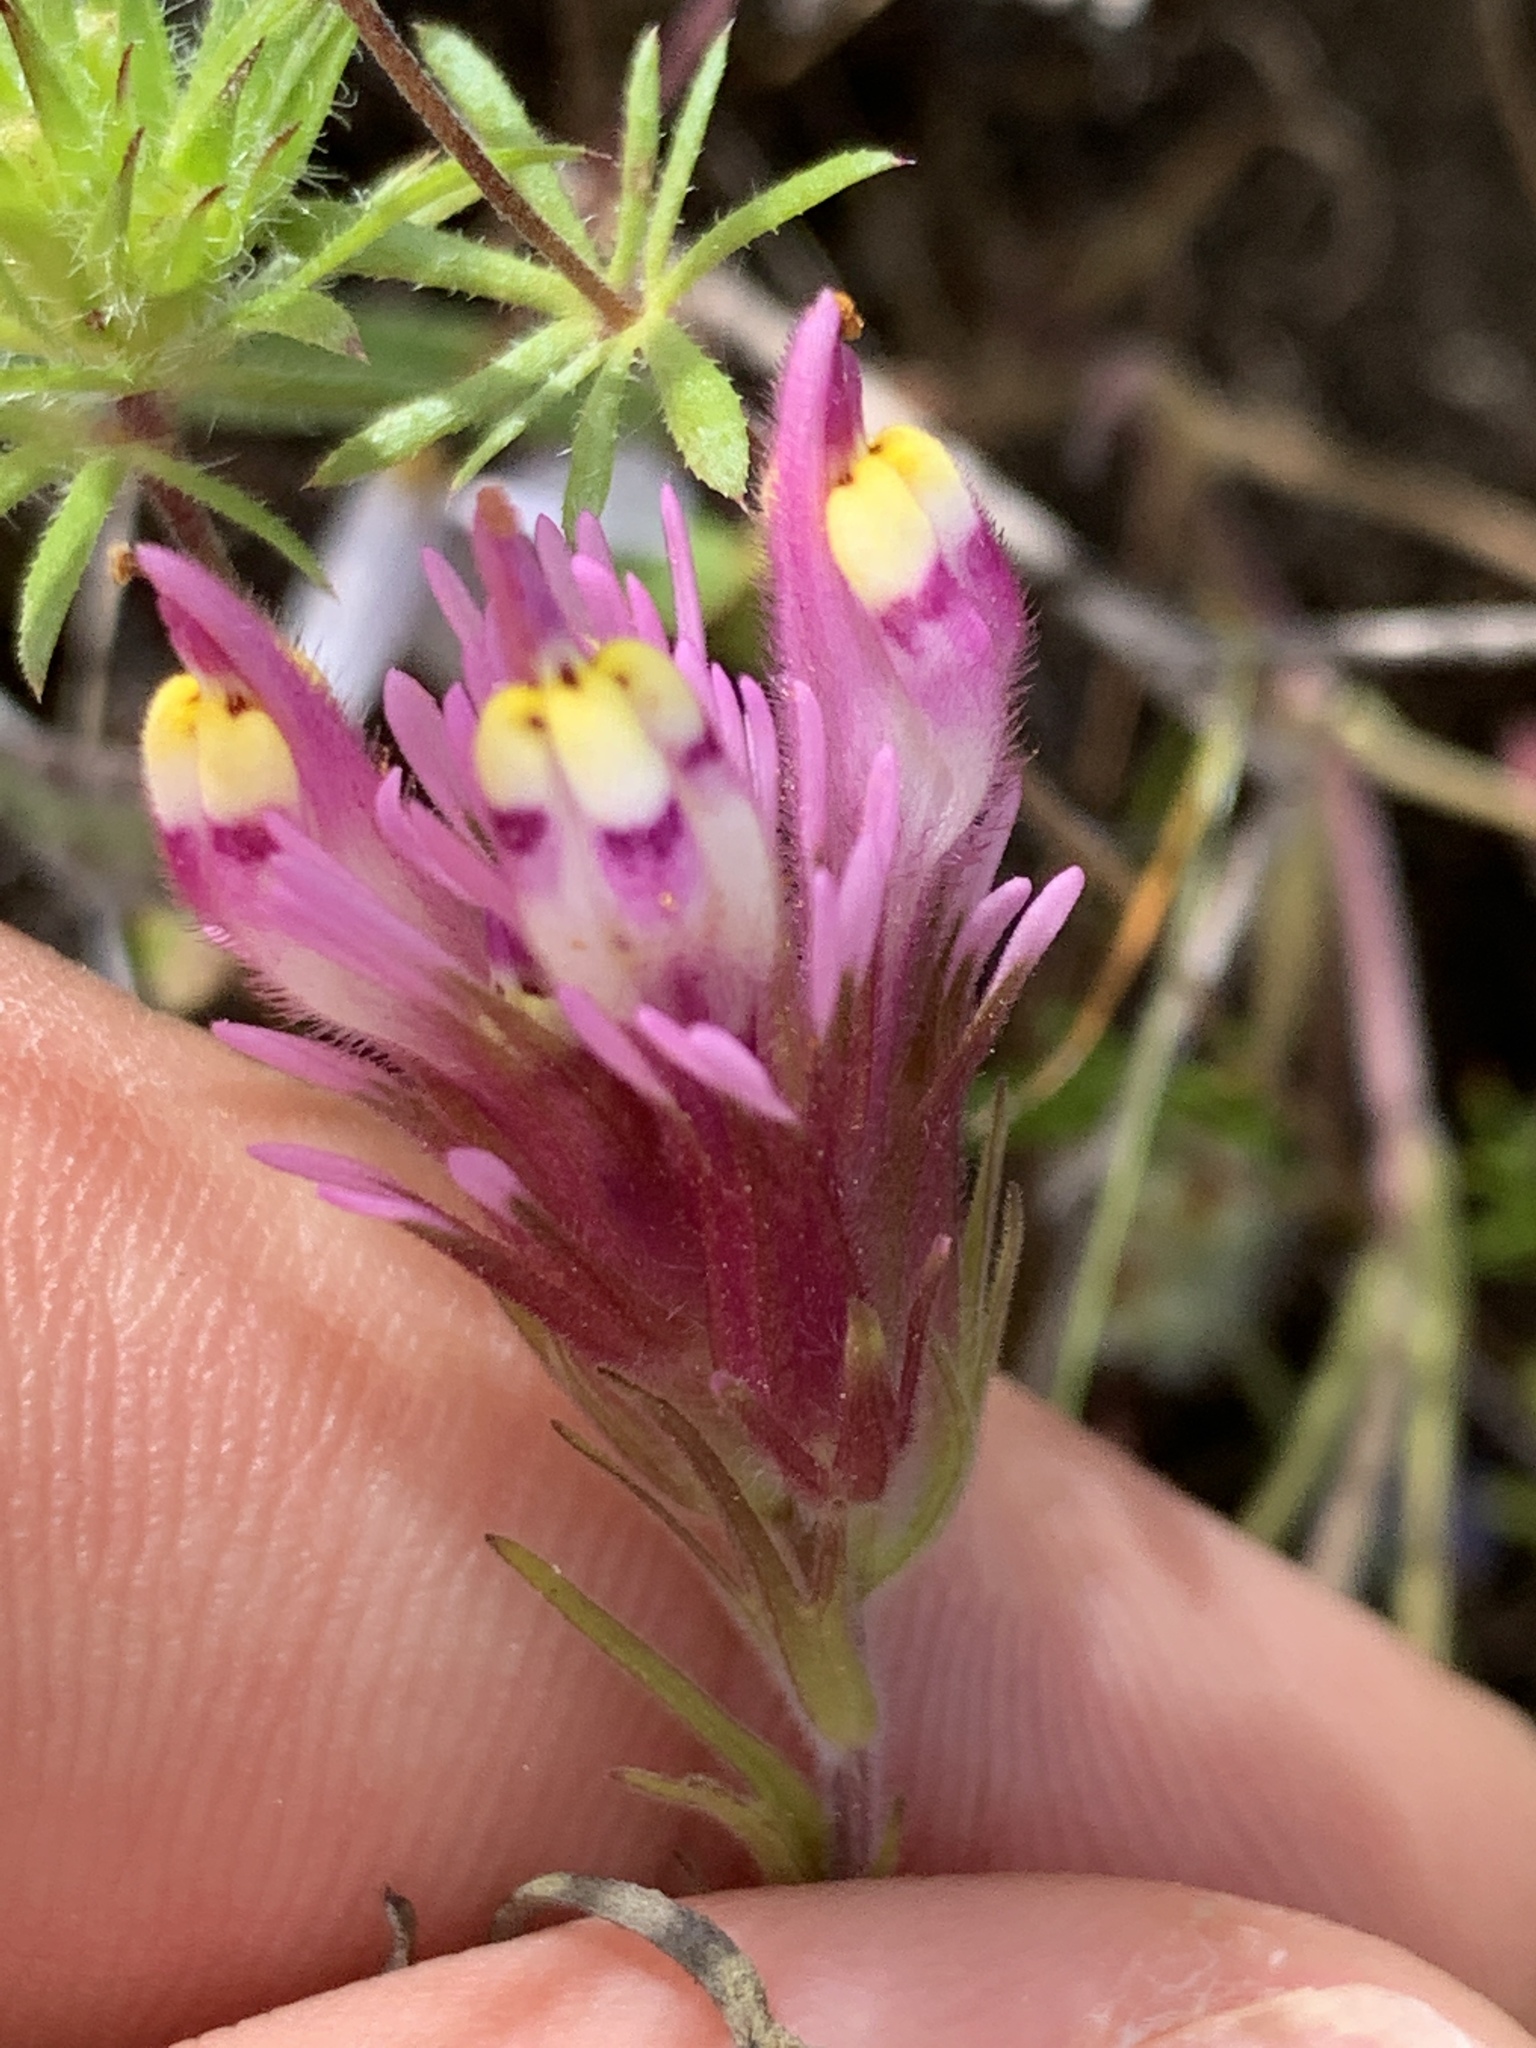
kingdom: Plantae
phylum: Tracheophyta
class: Magnoliopsida
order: Lamiales
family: Orobanchaceae
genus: Castilleja
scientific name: Castilleja densiflora
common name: Dense-flower indian paintbrush
